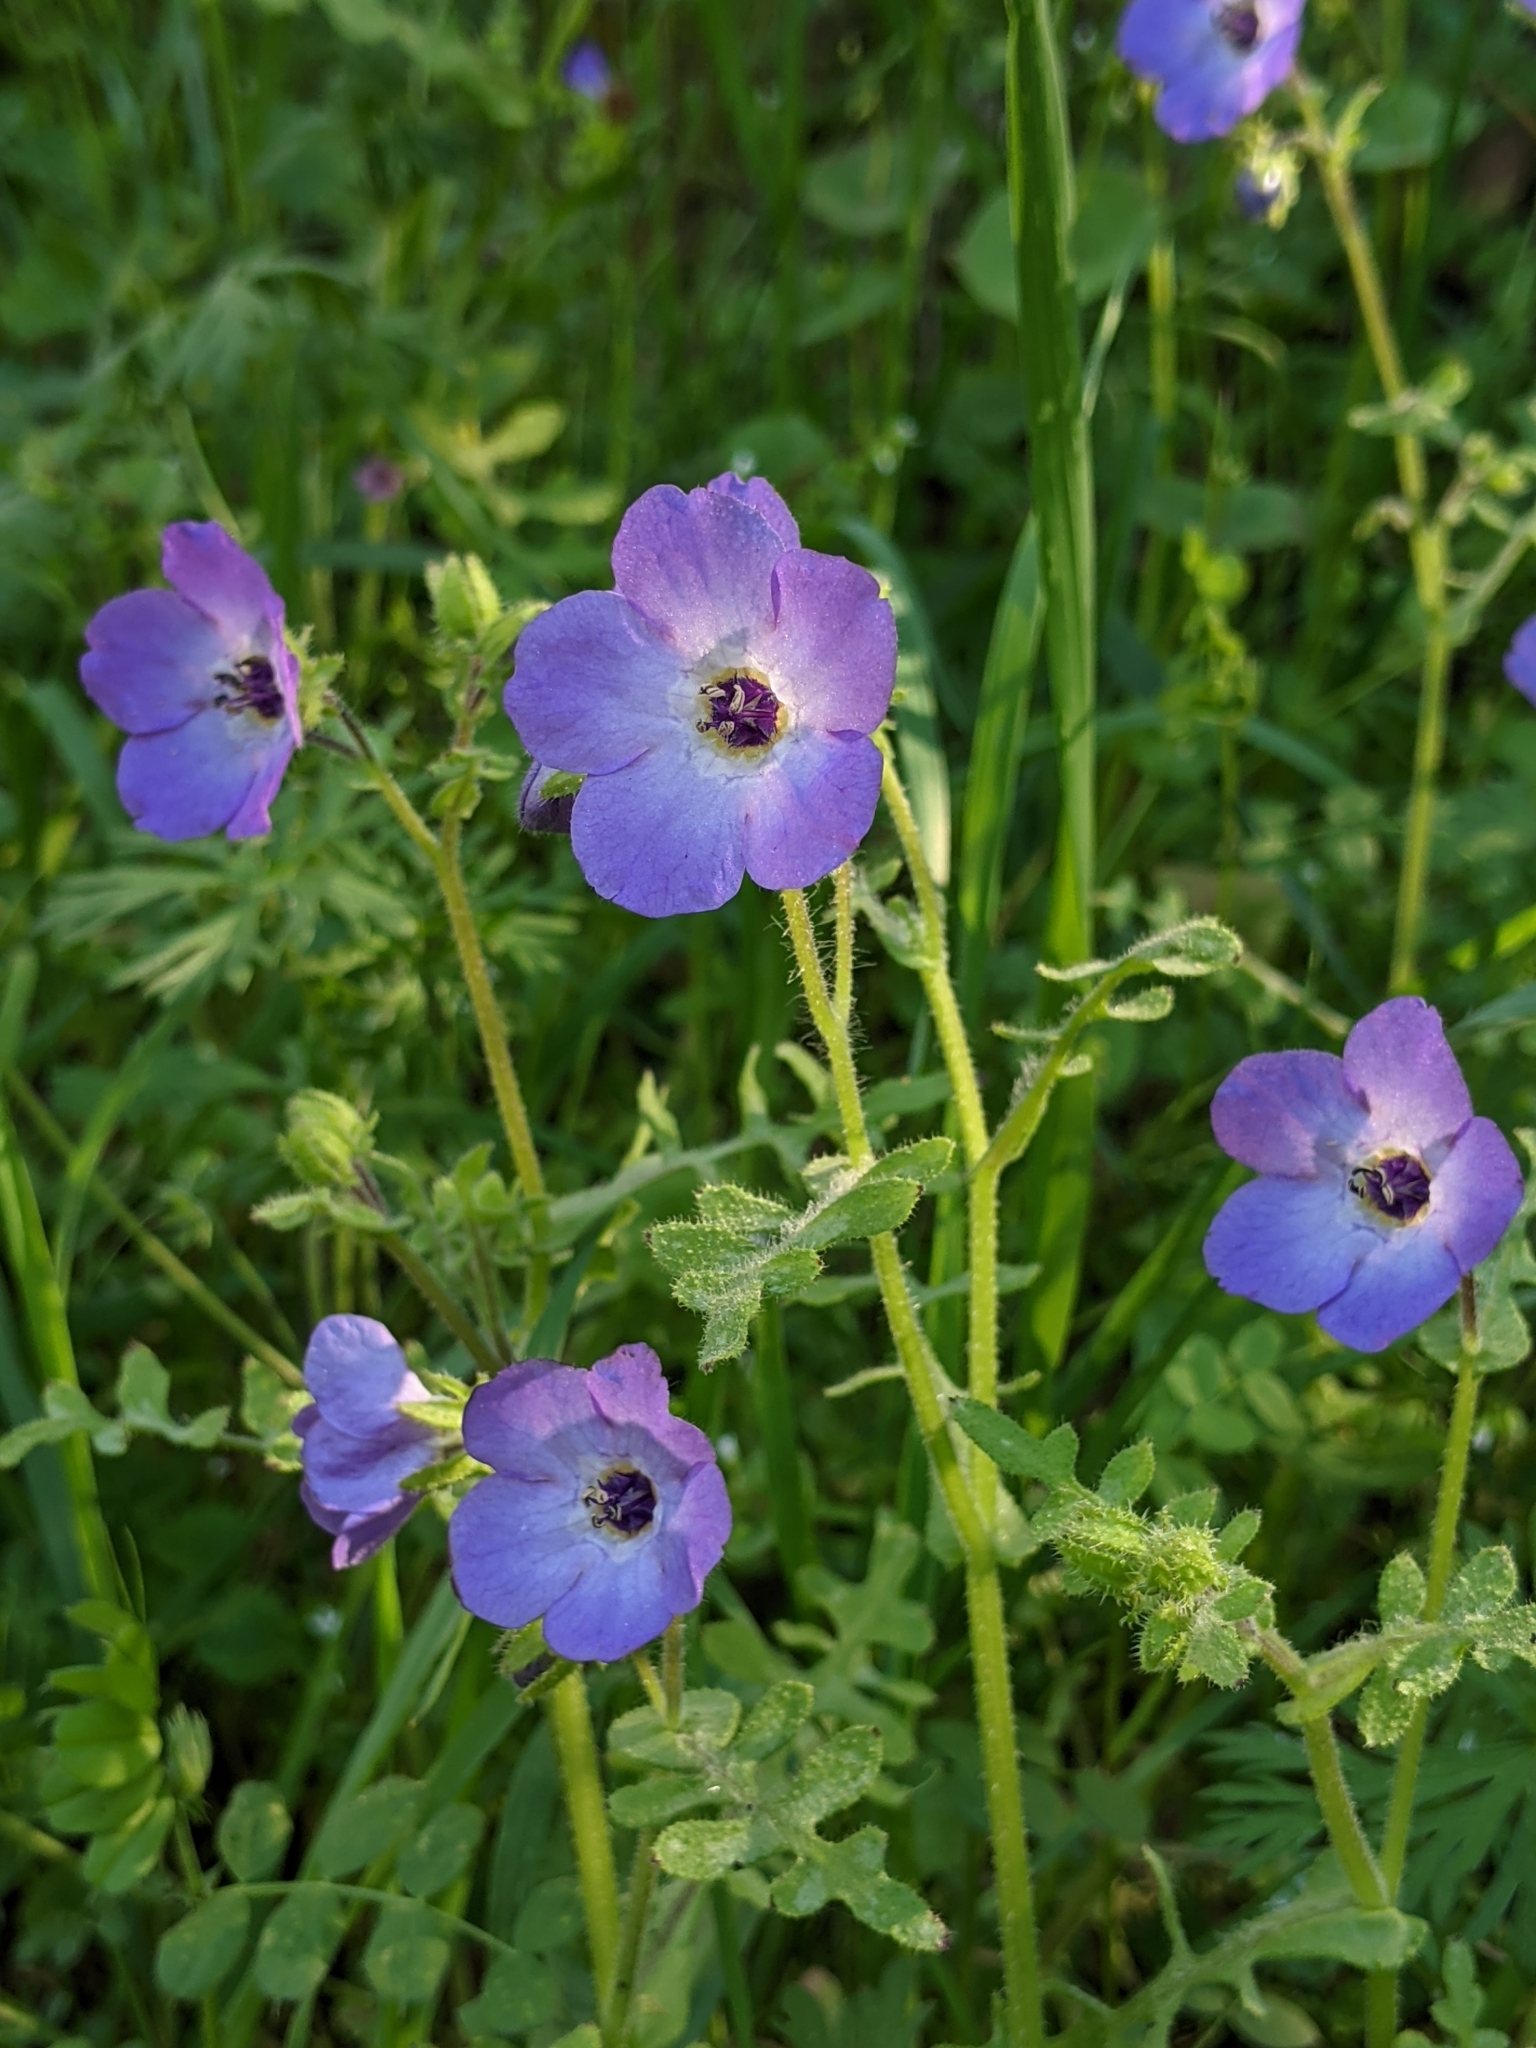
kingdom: Plantae
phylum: Tracheophyta
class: Magnoliopsida
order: Boraginales
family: Hydrophyllaceae
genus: Pholistoma
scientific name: Pholistoma auritum
